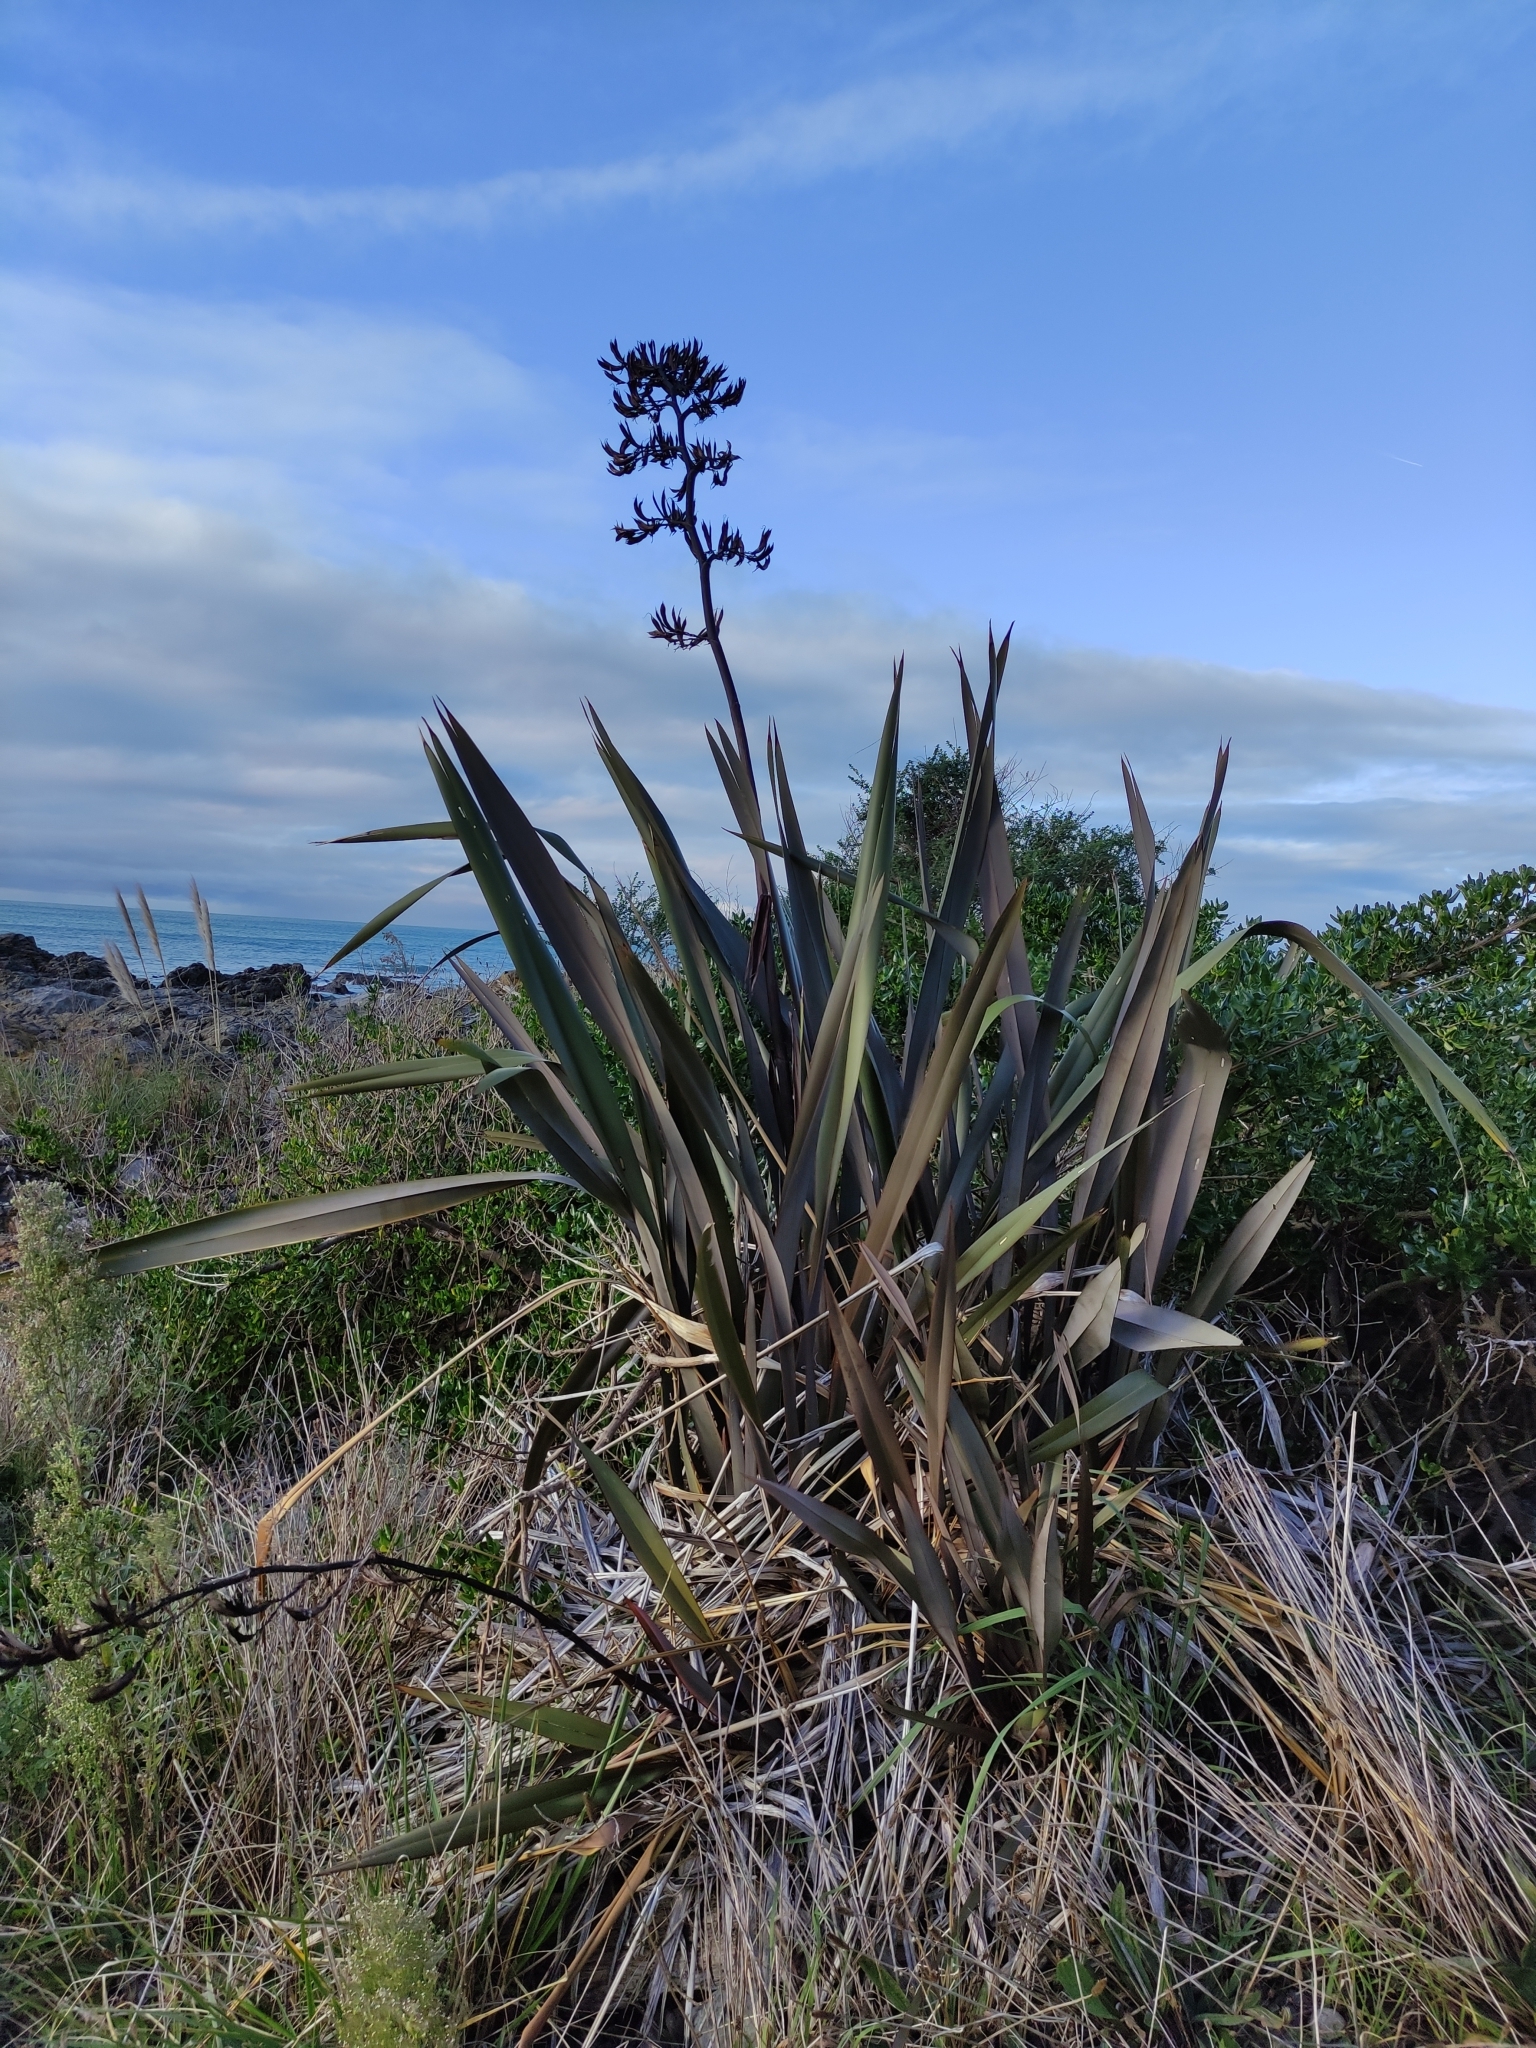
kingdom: Plantae
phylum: Tracheophyta
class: Liliopsida
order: Asparagales
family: Asphodelaceae
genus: Phormium
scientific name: Phormium tenax
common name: New zealand flax
